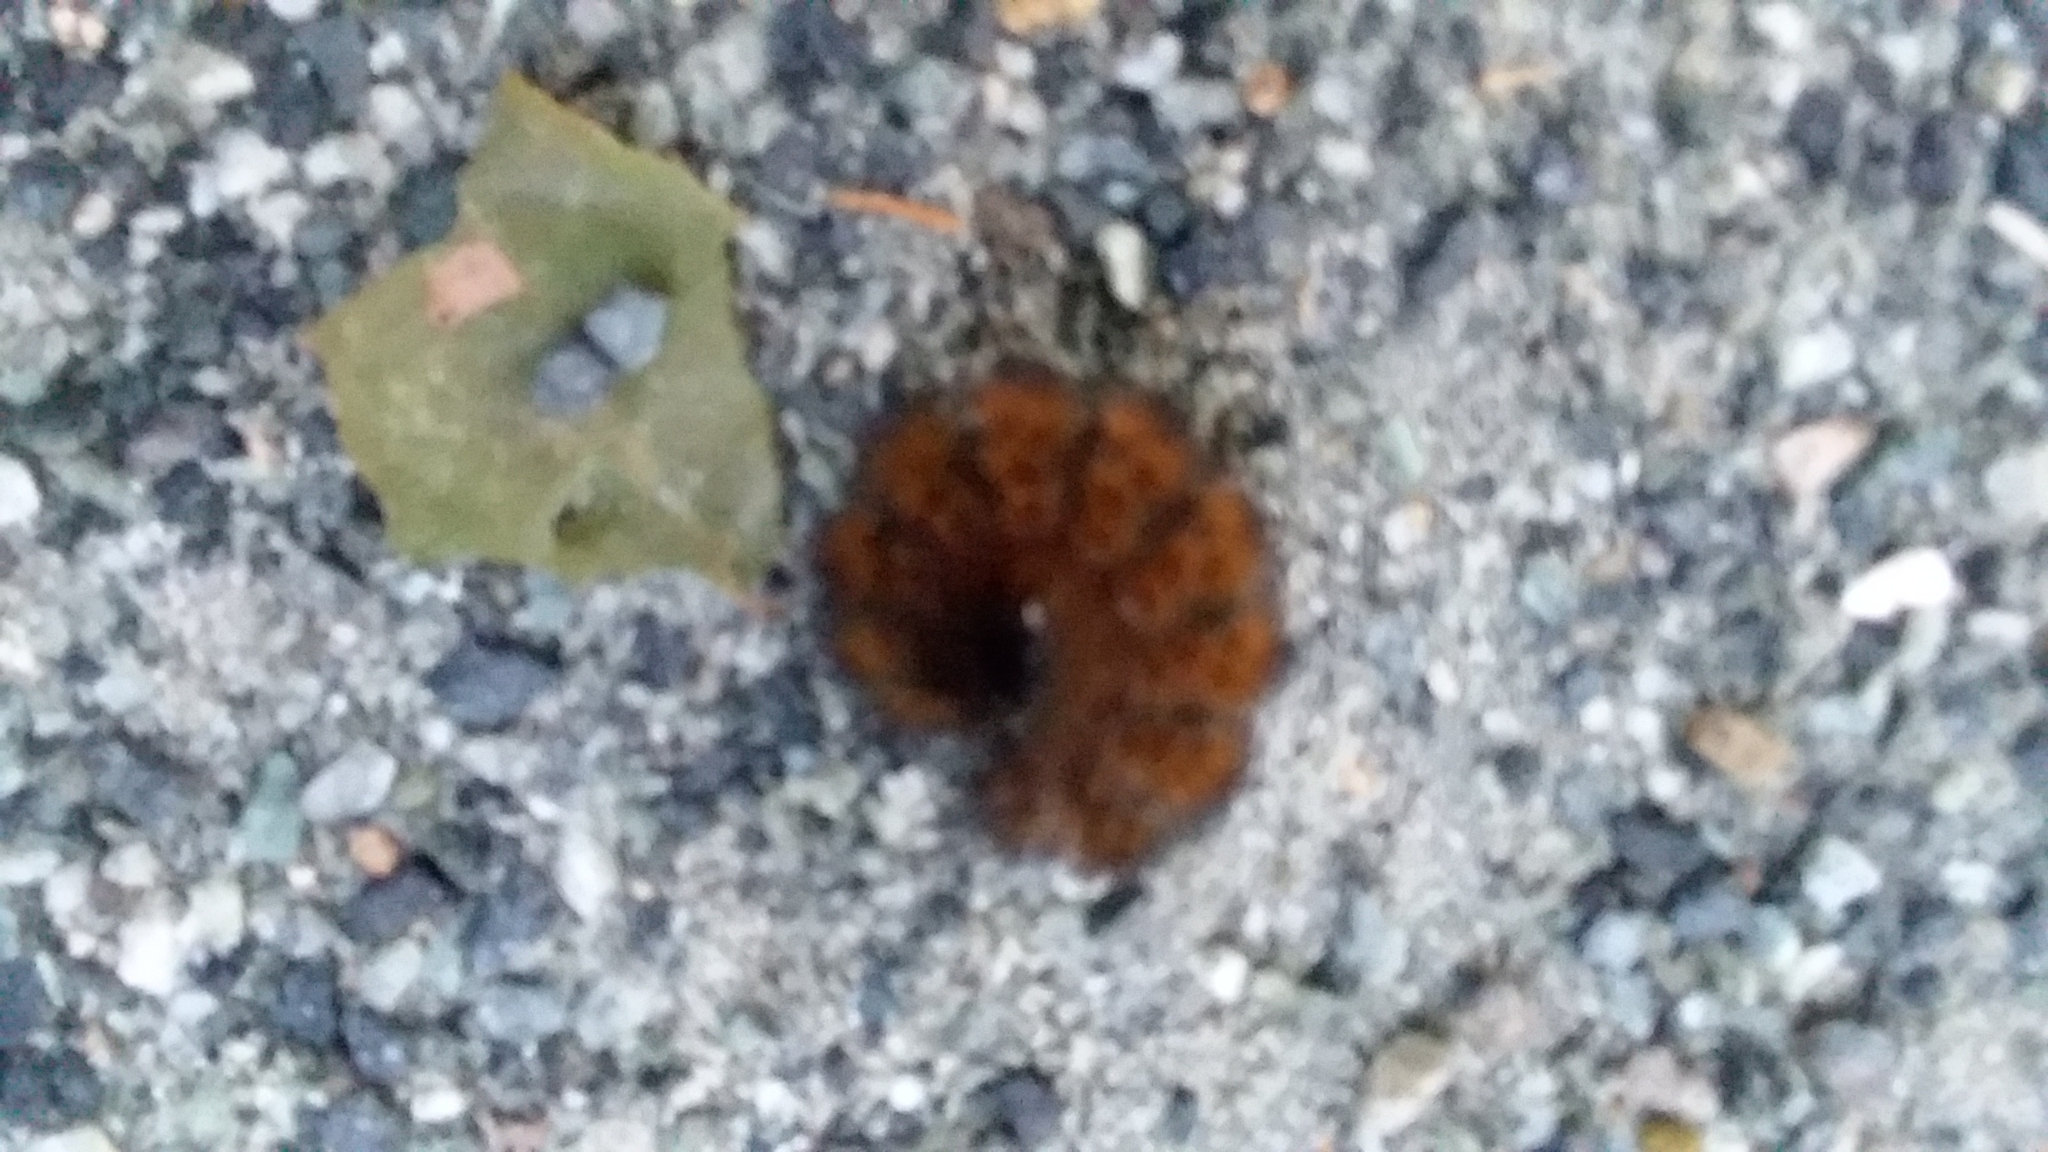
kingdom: Animalia
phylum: Arthropoda
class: Insecta
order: Lepidoptera
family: Erebidae
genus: Pyrrharctia
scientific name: Pyrrharctia isabella
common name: Isabella tiger moth
